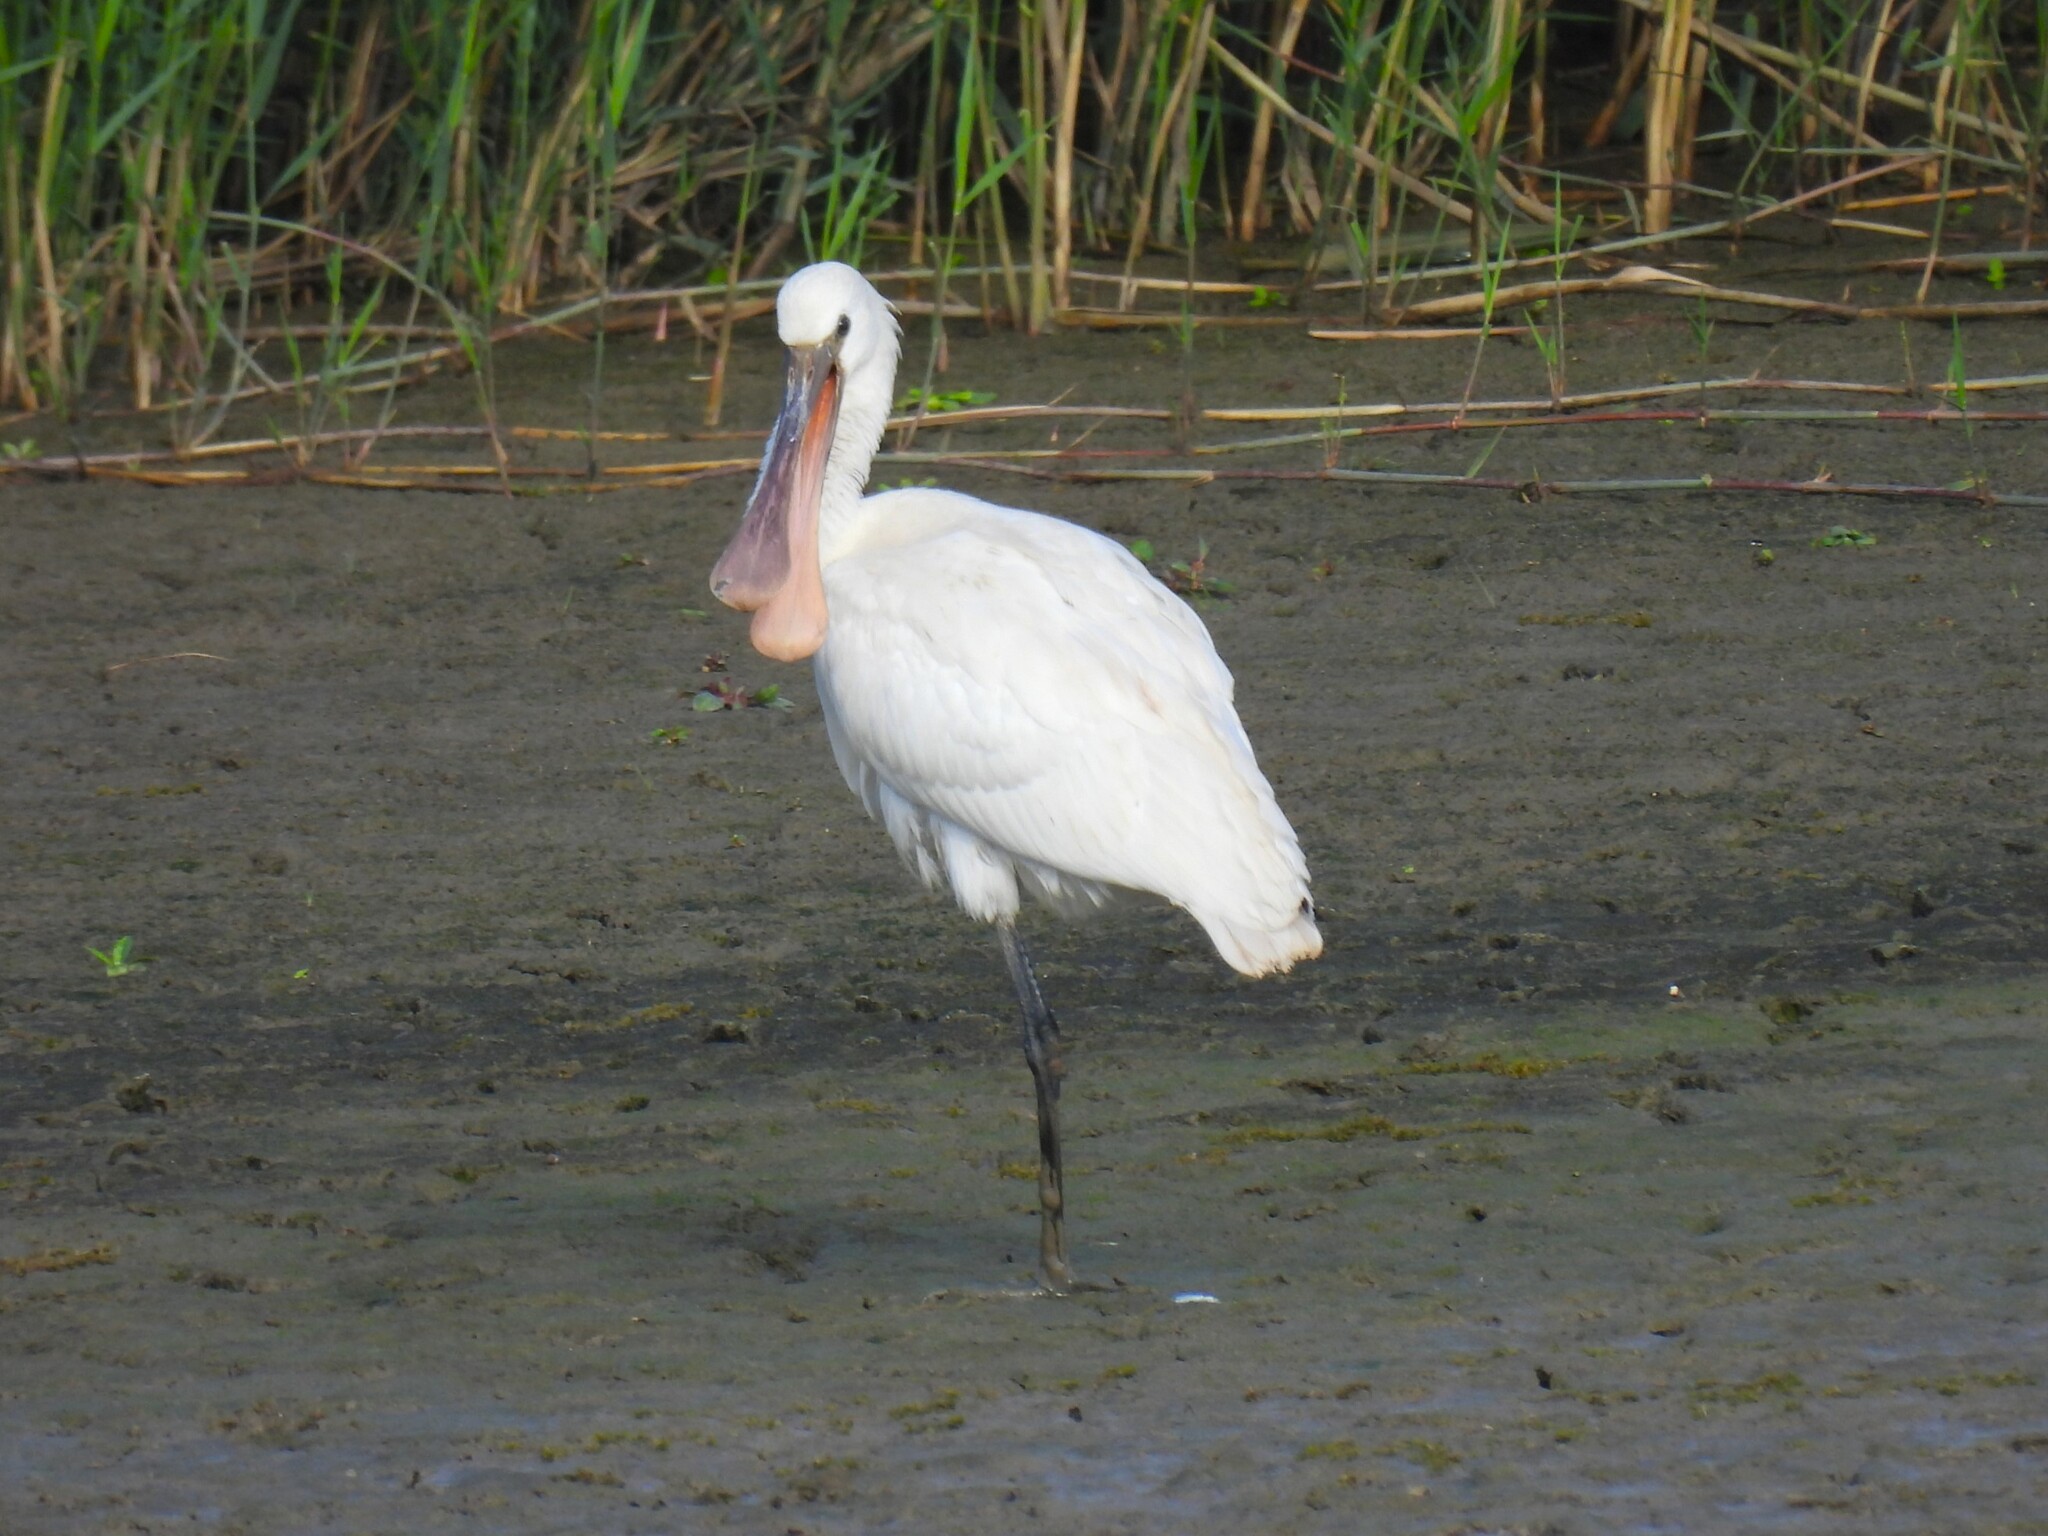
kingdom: Animalia
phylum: Chordata
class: Aves
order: Pelecaniformes
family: Threskiornithidae
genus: Platalea
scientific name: Platalea leucorodia
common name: Eurasian spoonbill
